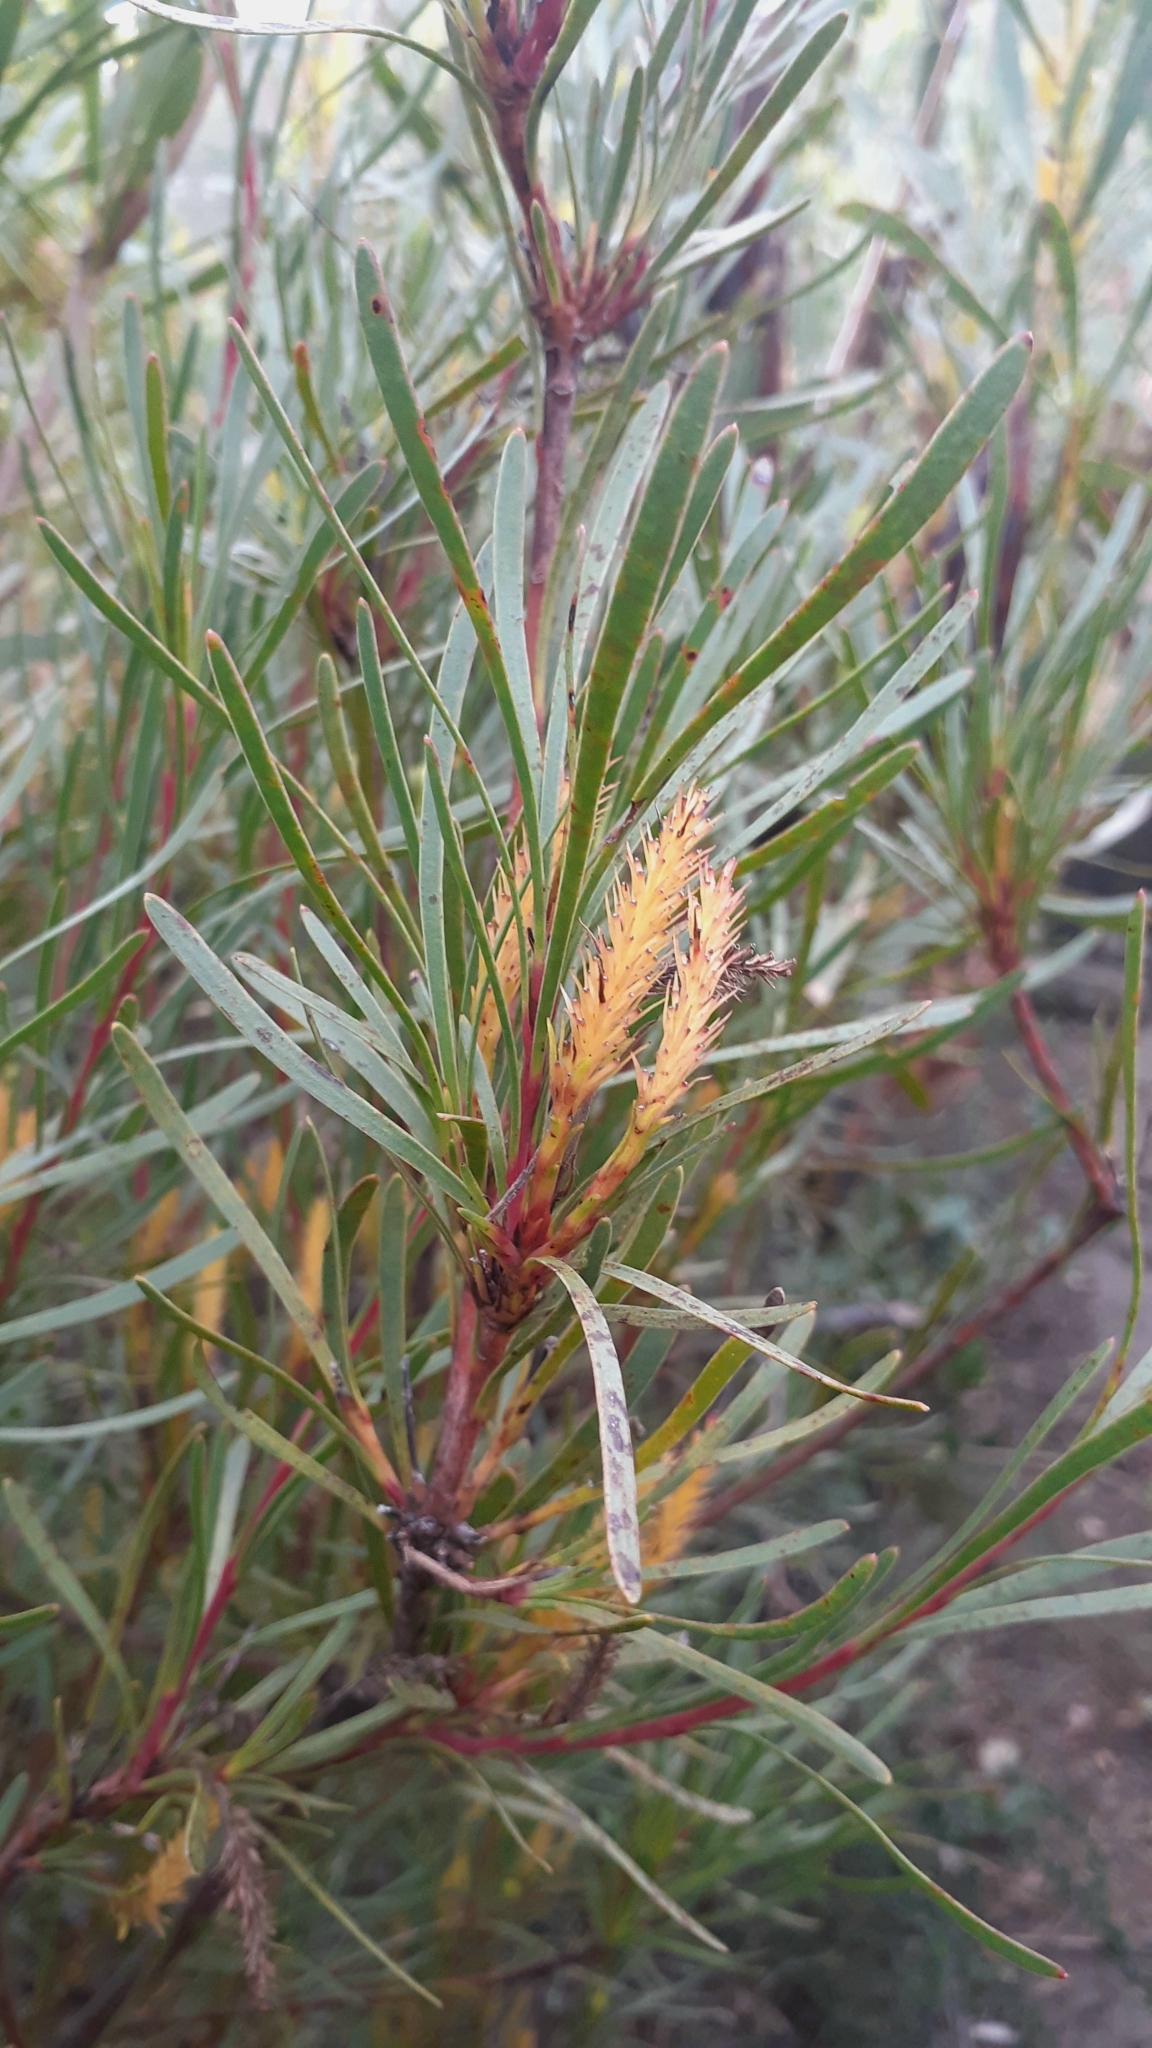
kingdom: Plantae
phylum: Tracheophyta
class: Magnoliopsida
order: Proteales
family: Proteaceae
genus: Aulax
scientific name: Aulax
